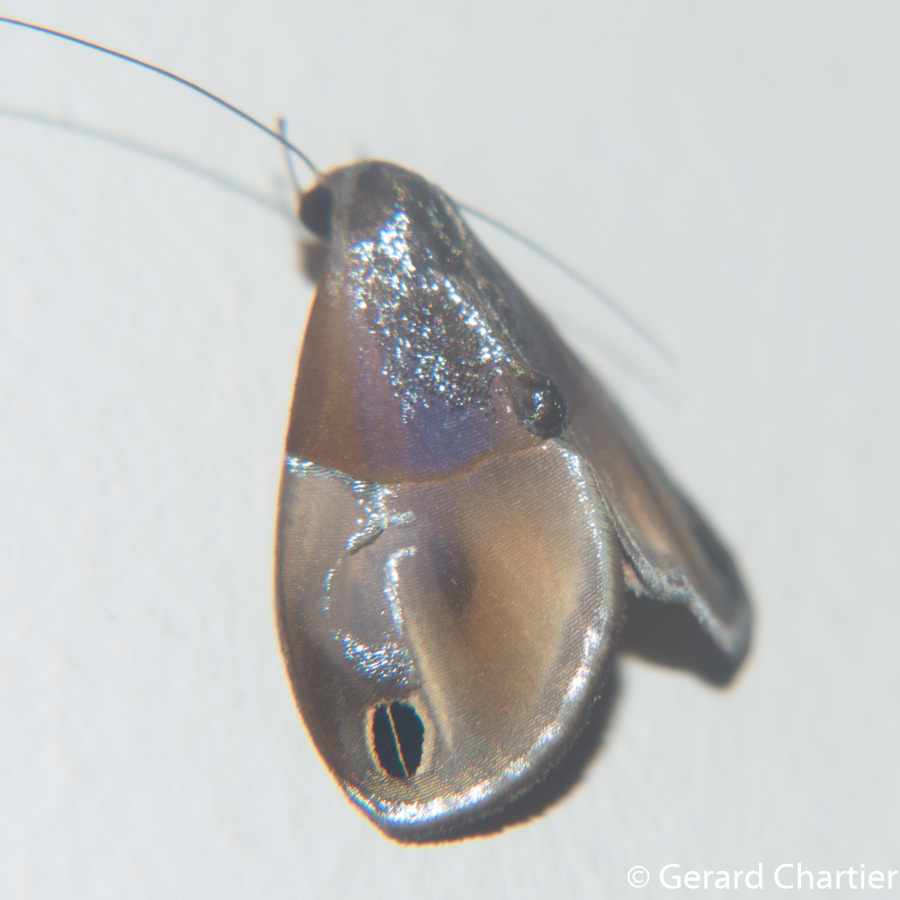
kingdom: Animalia
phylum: Arthropoda
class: Insecta
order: Lepidoptera
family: Nolidae
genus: Cacyparis
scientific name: Cacyparis tenuipalpis
